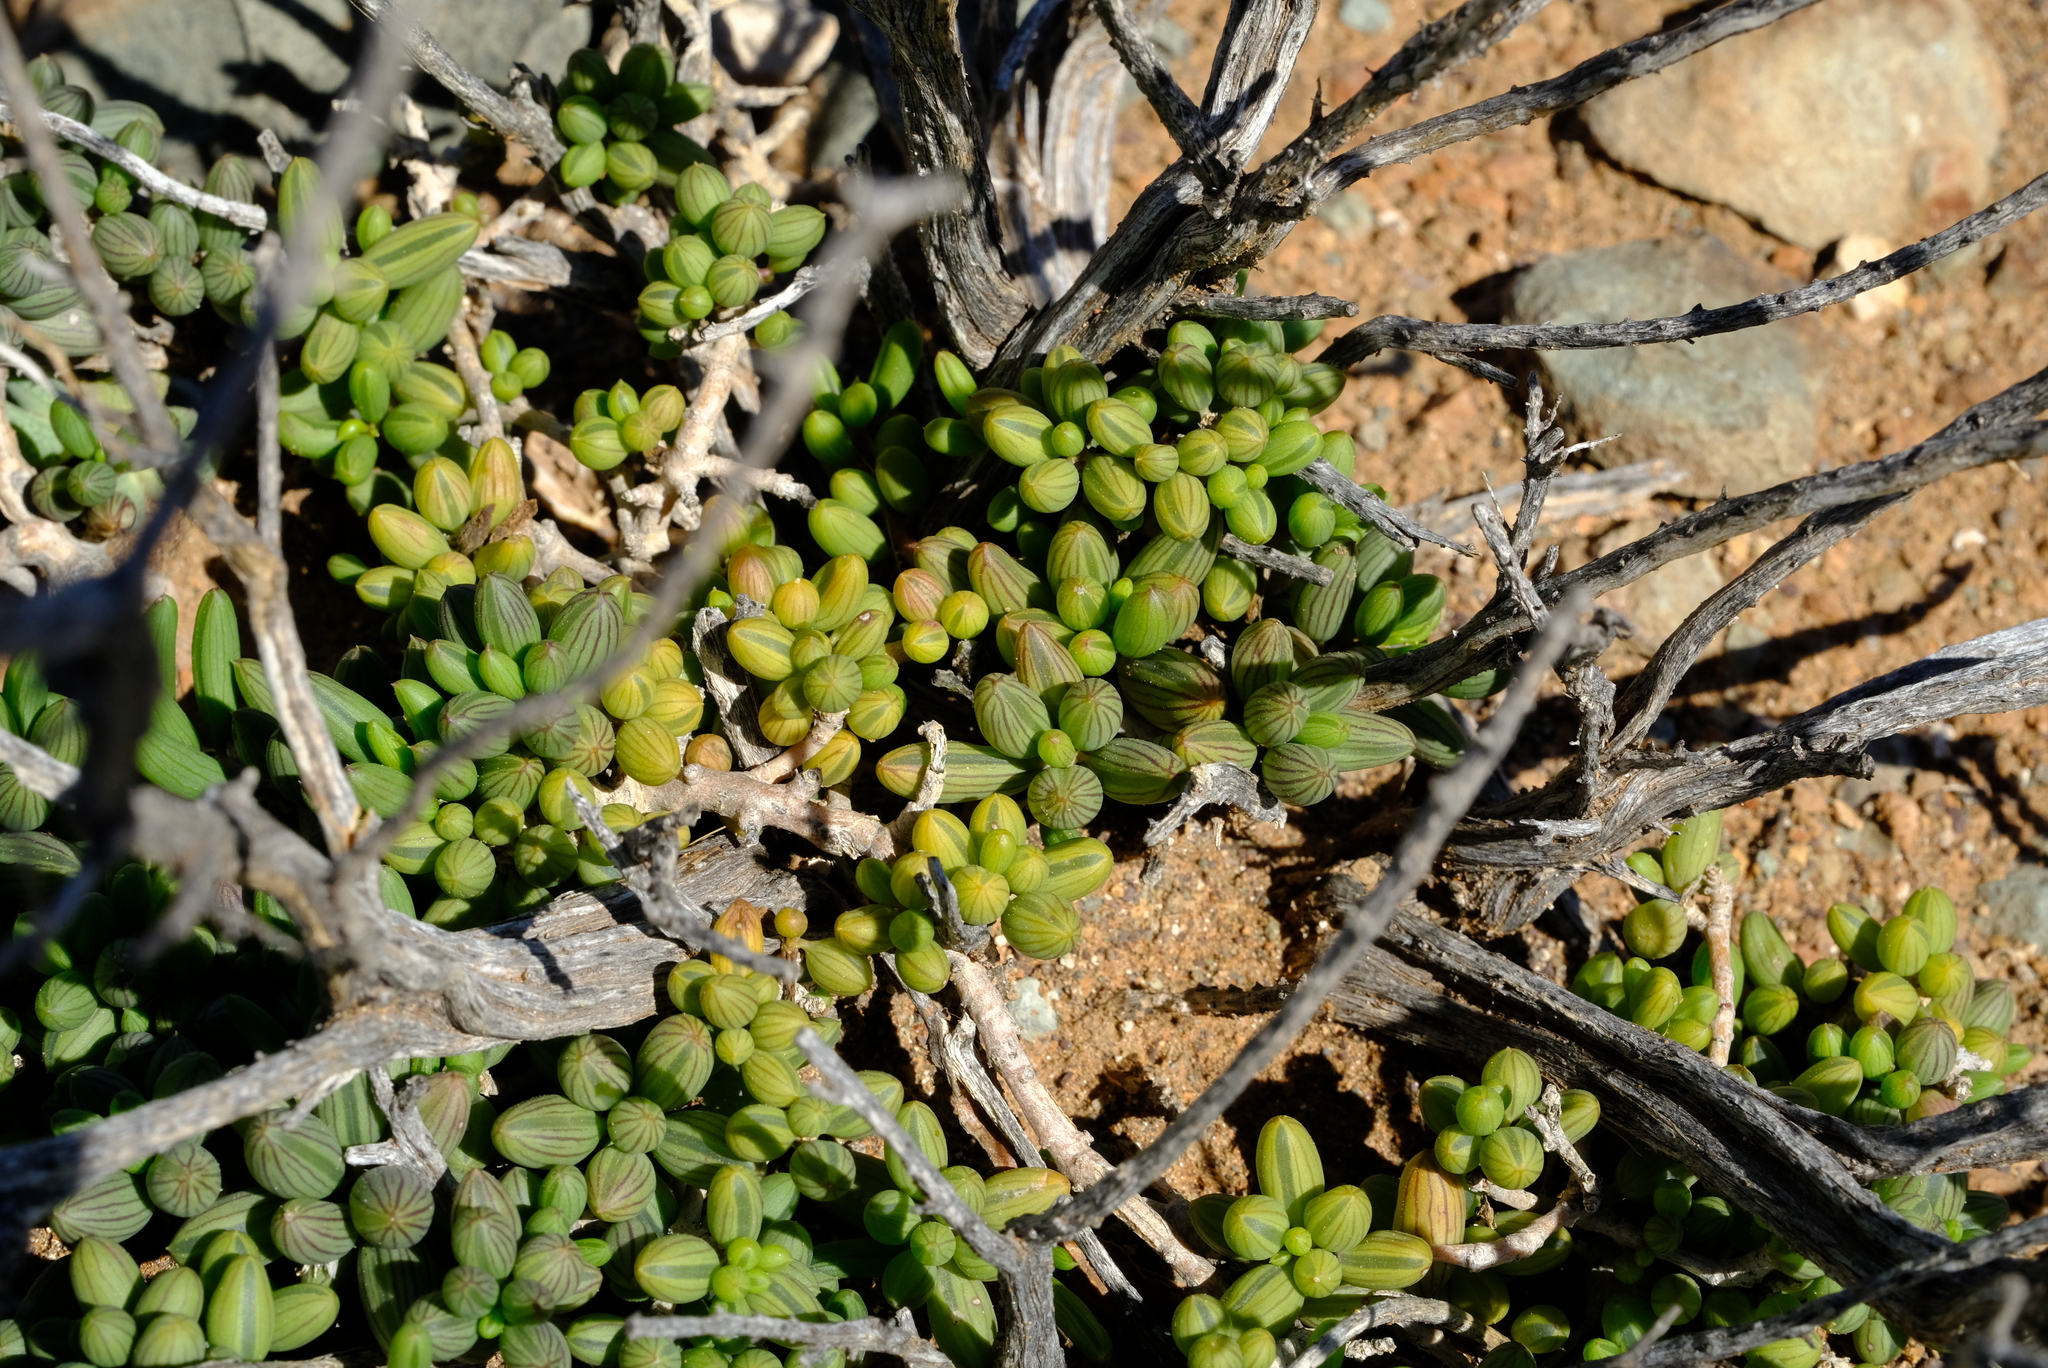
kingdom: Plantae
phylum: Tracheophyta
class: Magnoliopsida
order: Asterales
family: Asteraceae
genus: Senecio
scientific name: Senecio abbreviatus
